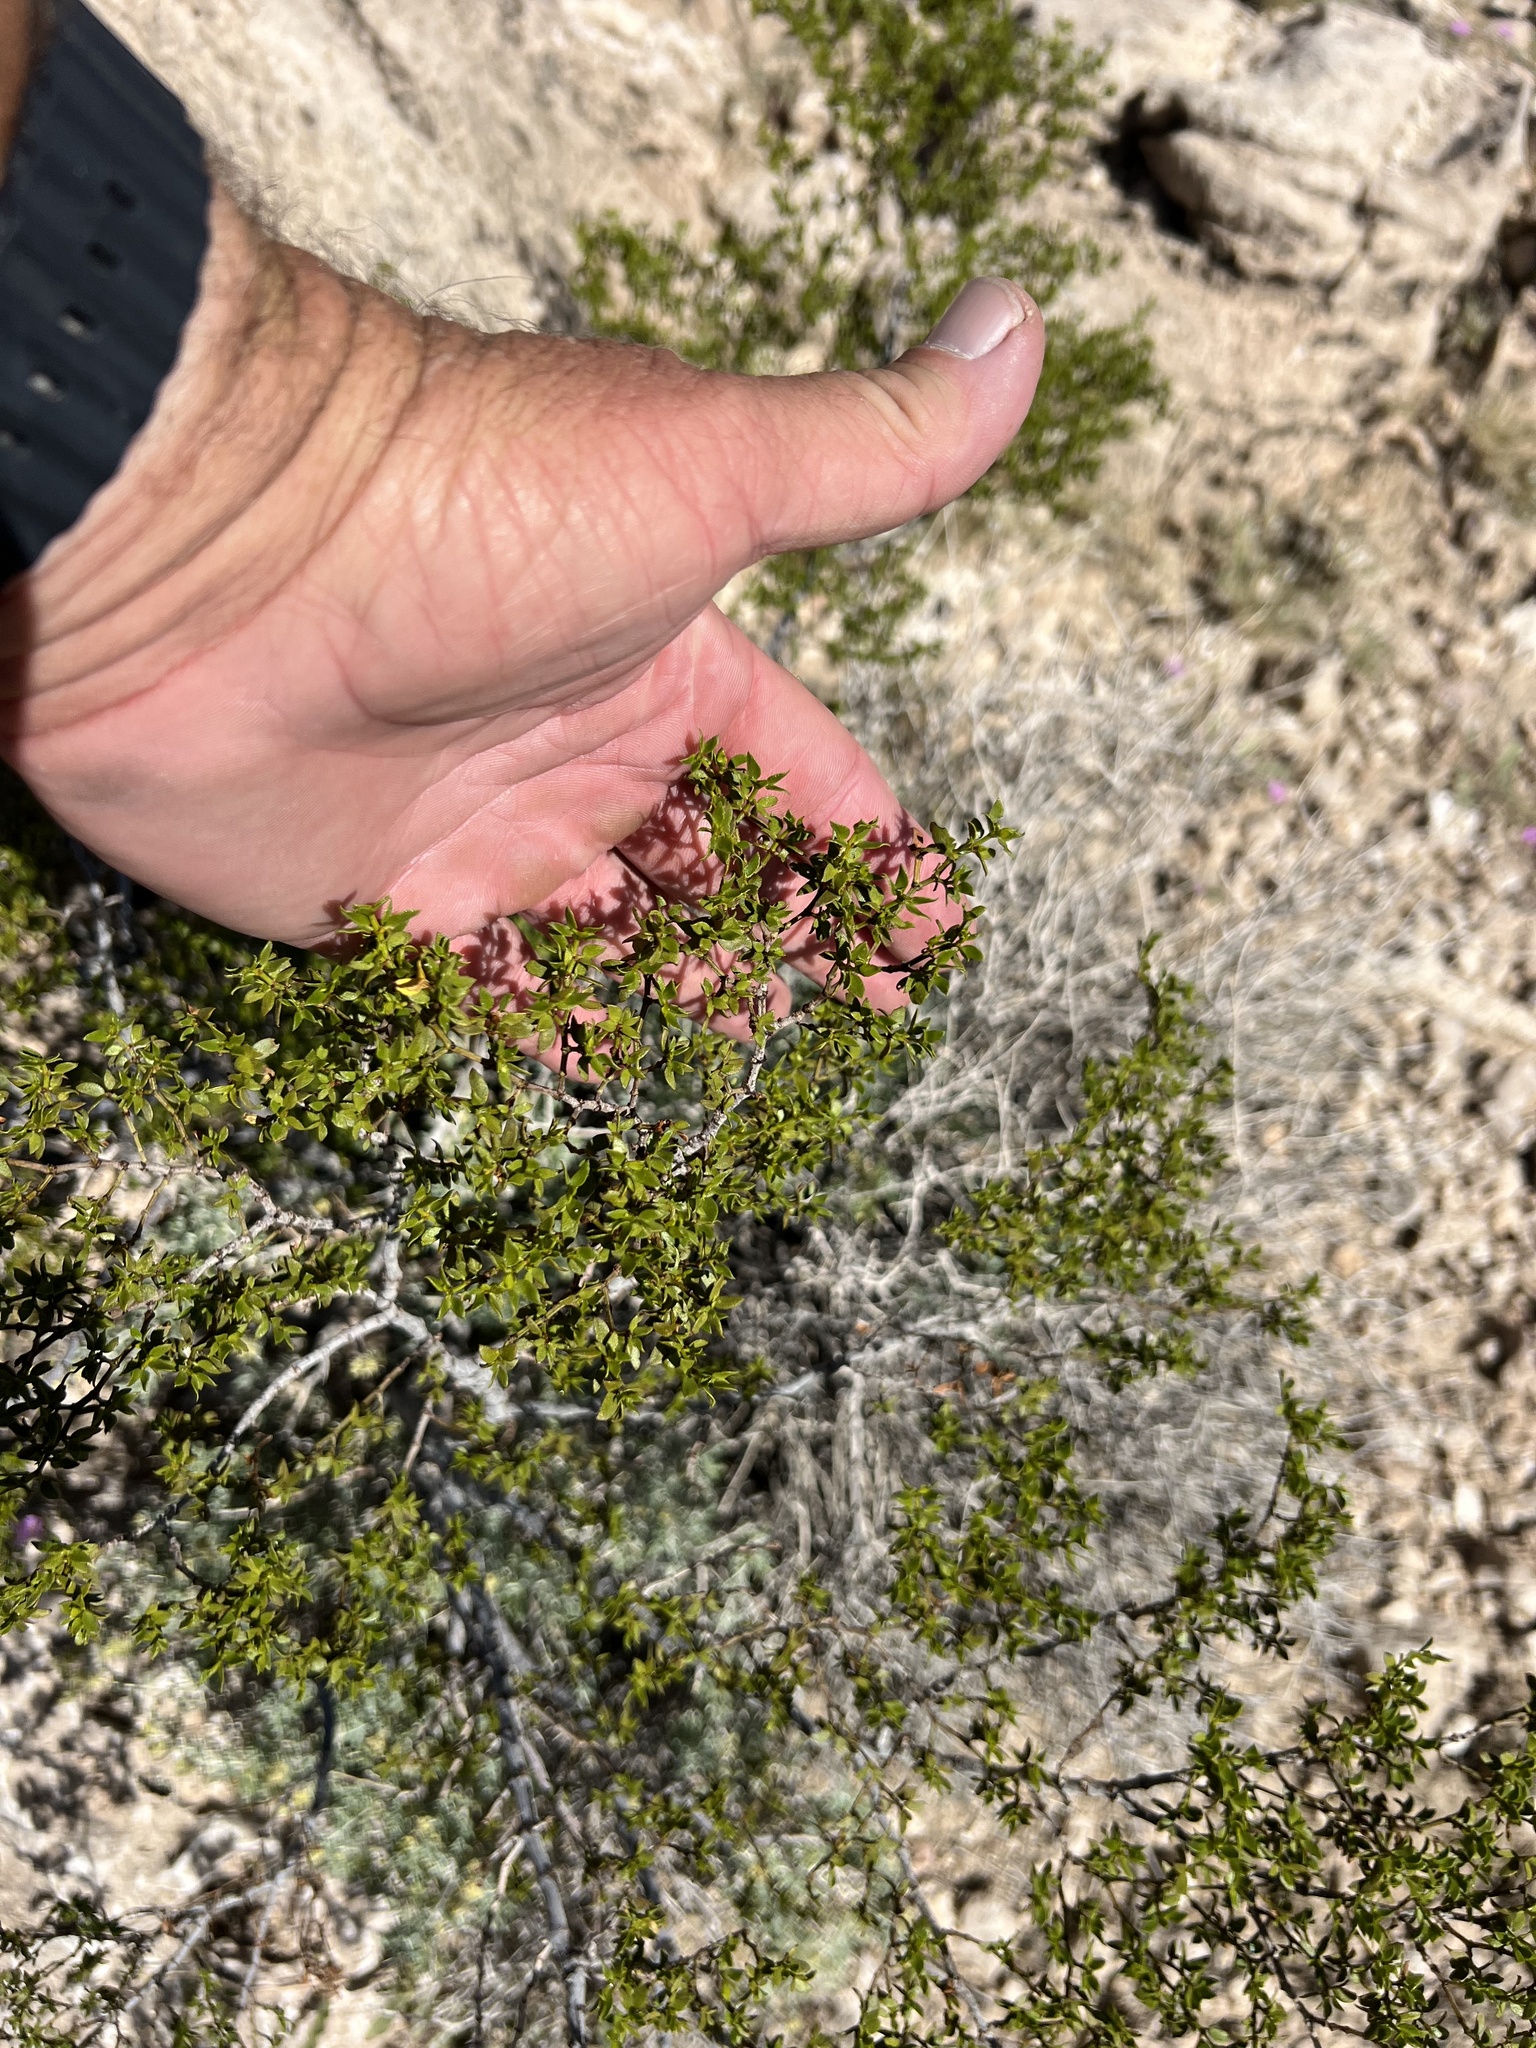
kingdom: Plantae
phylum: Tracheophyta
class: Magnoliopsida
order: Zygophyllales
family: Zygophyllaceae
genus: Larrea
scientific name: Larrea tridentata
